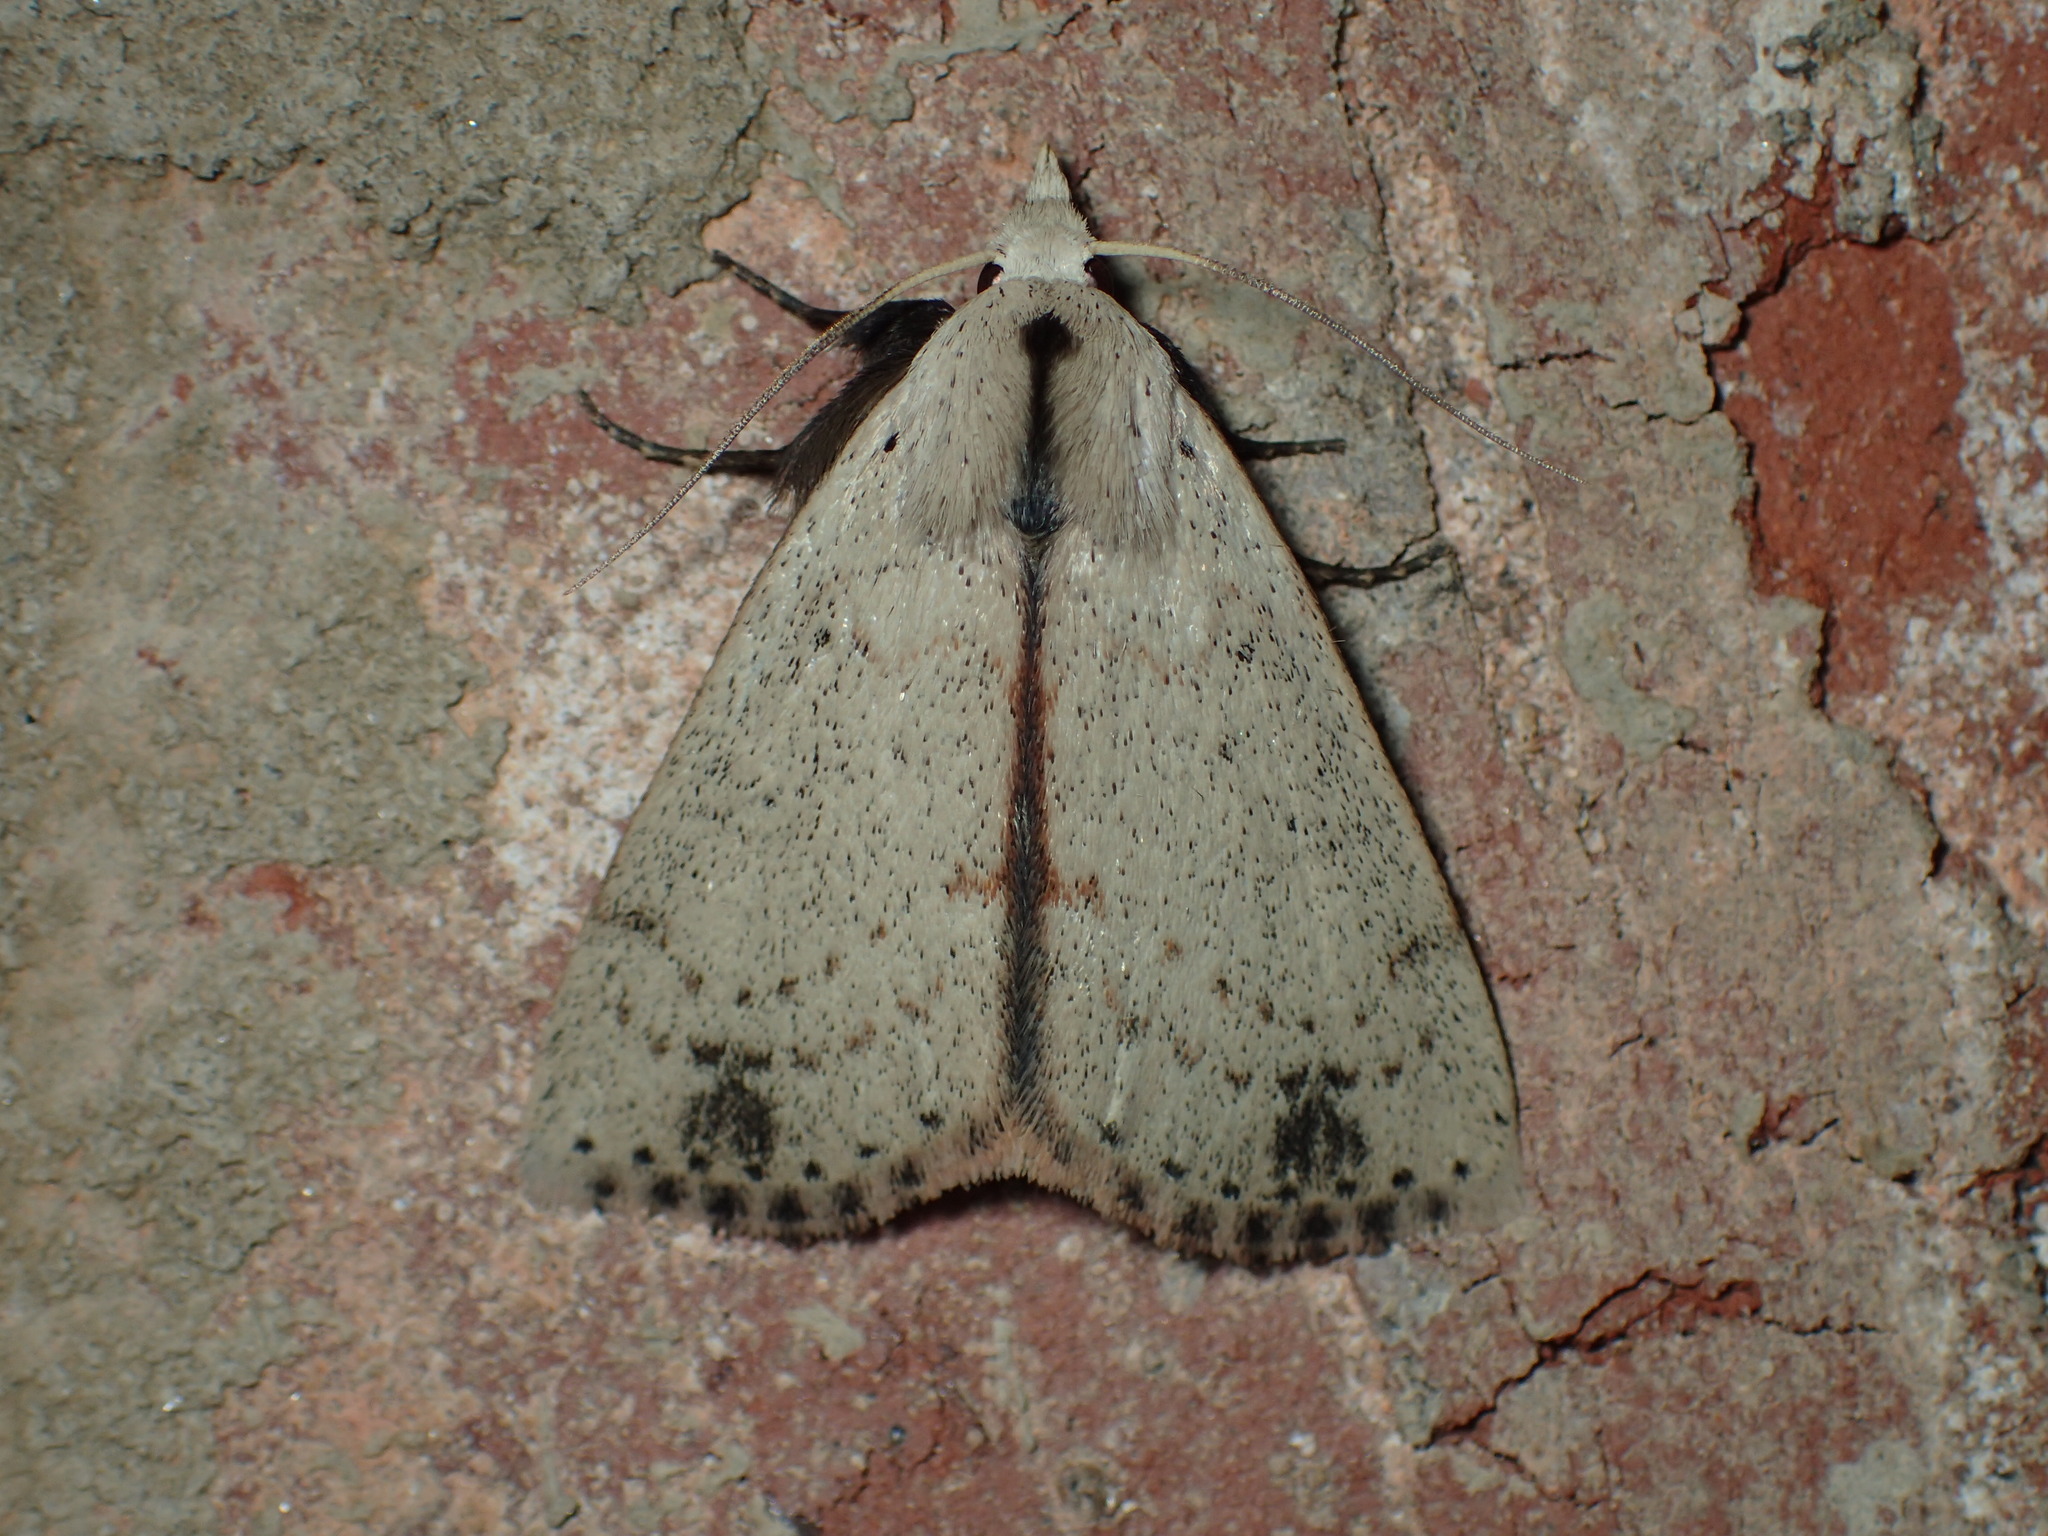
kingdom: Animalia
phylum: Arthropoda
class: Insecta
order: Lepidoptera
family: Erebidae
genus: Scolecocampa
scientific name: Scolecocampa liburna
